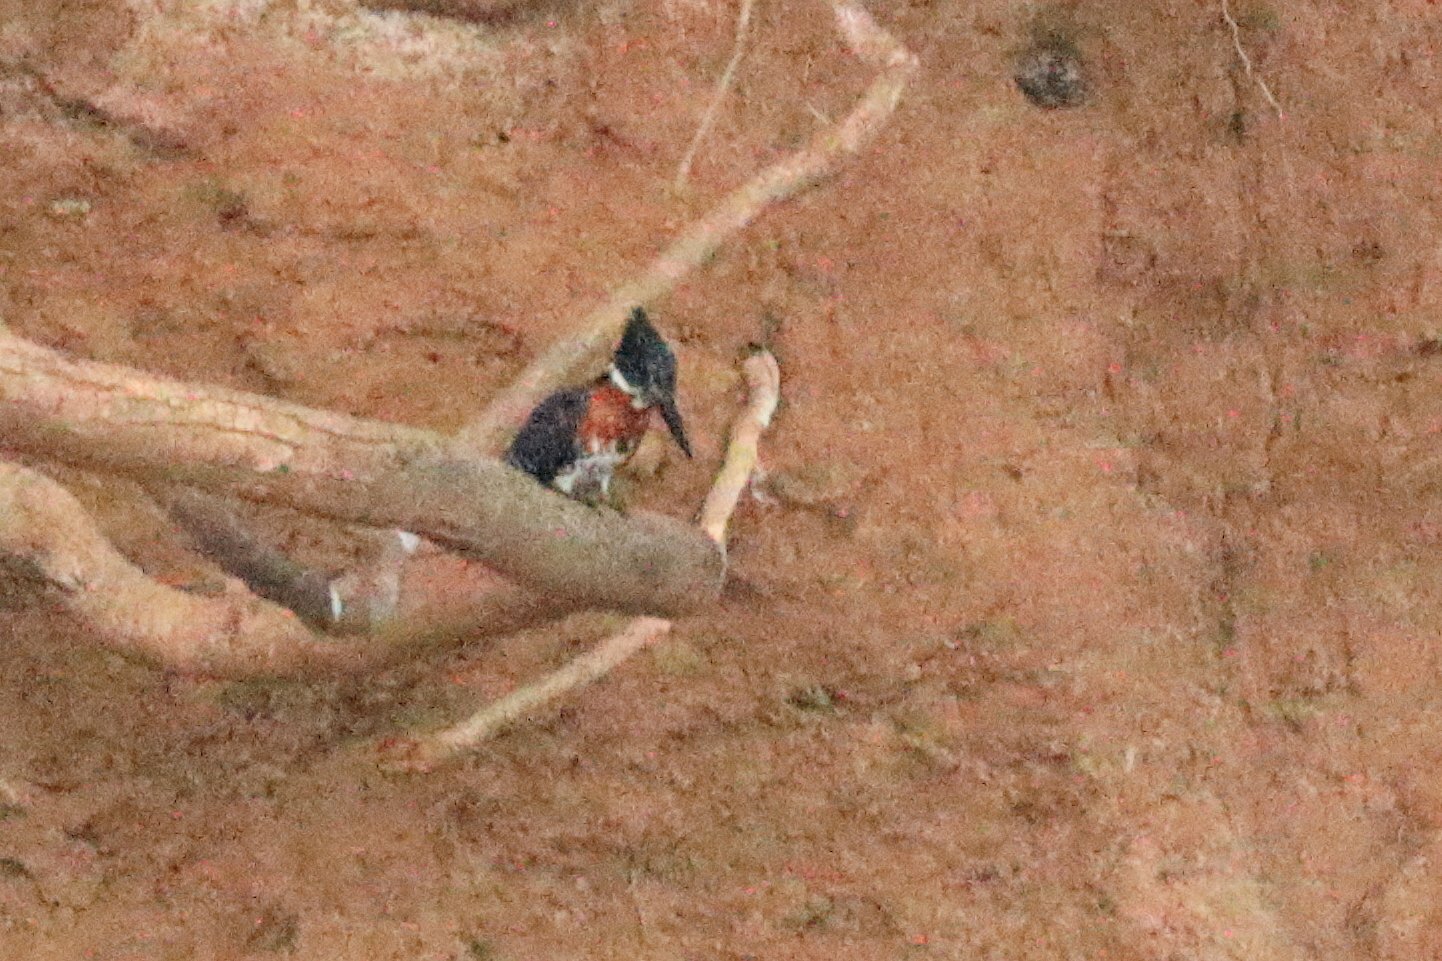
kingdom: Animalia
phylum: Chordata
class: Aves
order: Coraciiformes
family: Alcedinidae
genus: Megaceryle
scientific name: Megaceryle maxima
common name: Giant kingfisher
